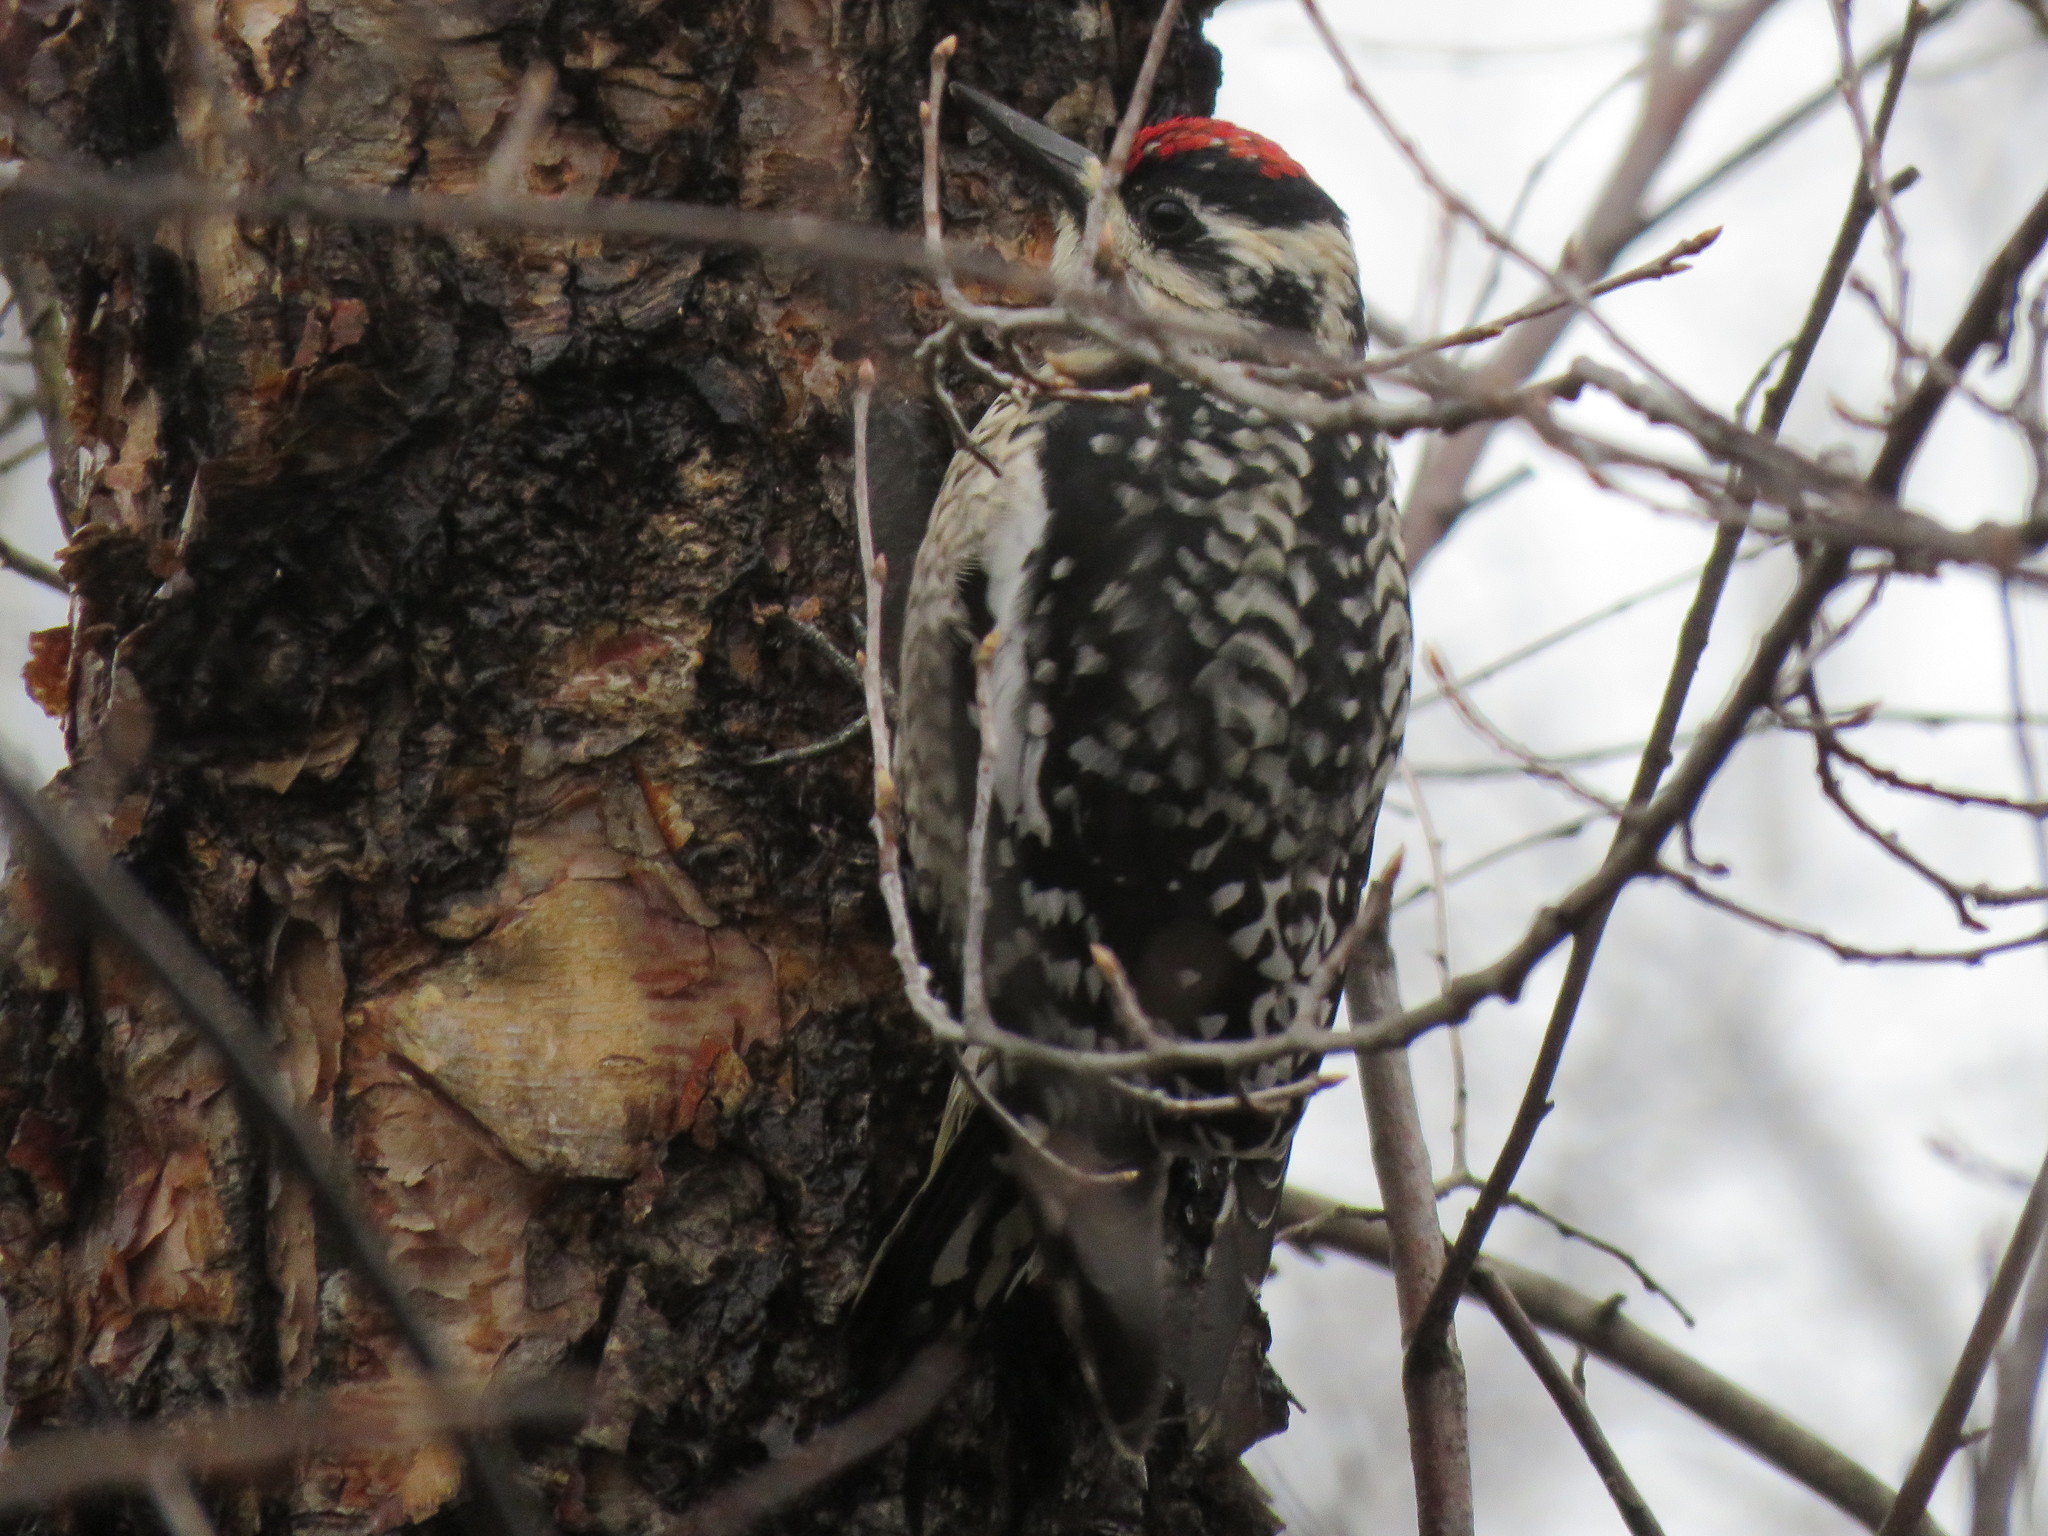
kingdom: Animalia
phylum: Chordata
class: Aves
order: Piciformes
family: Picidae
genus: Sphyrapicus
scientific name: Sphyrapicus varius
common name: Yellow-bellied sapsucker
